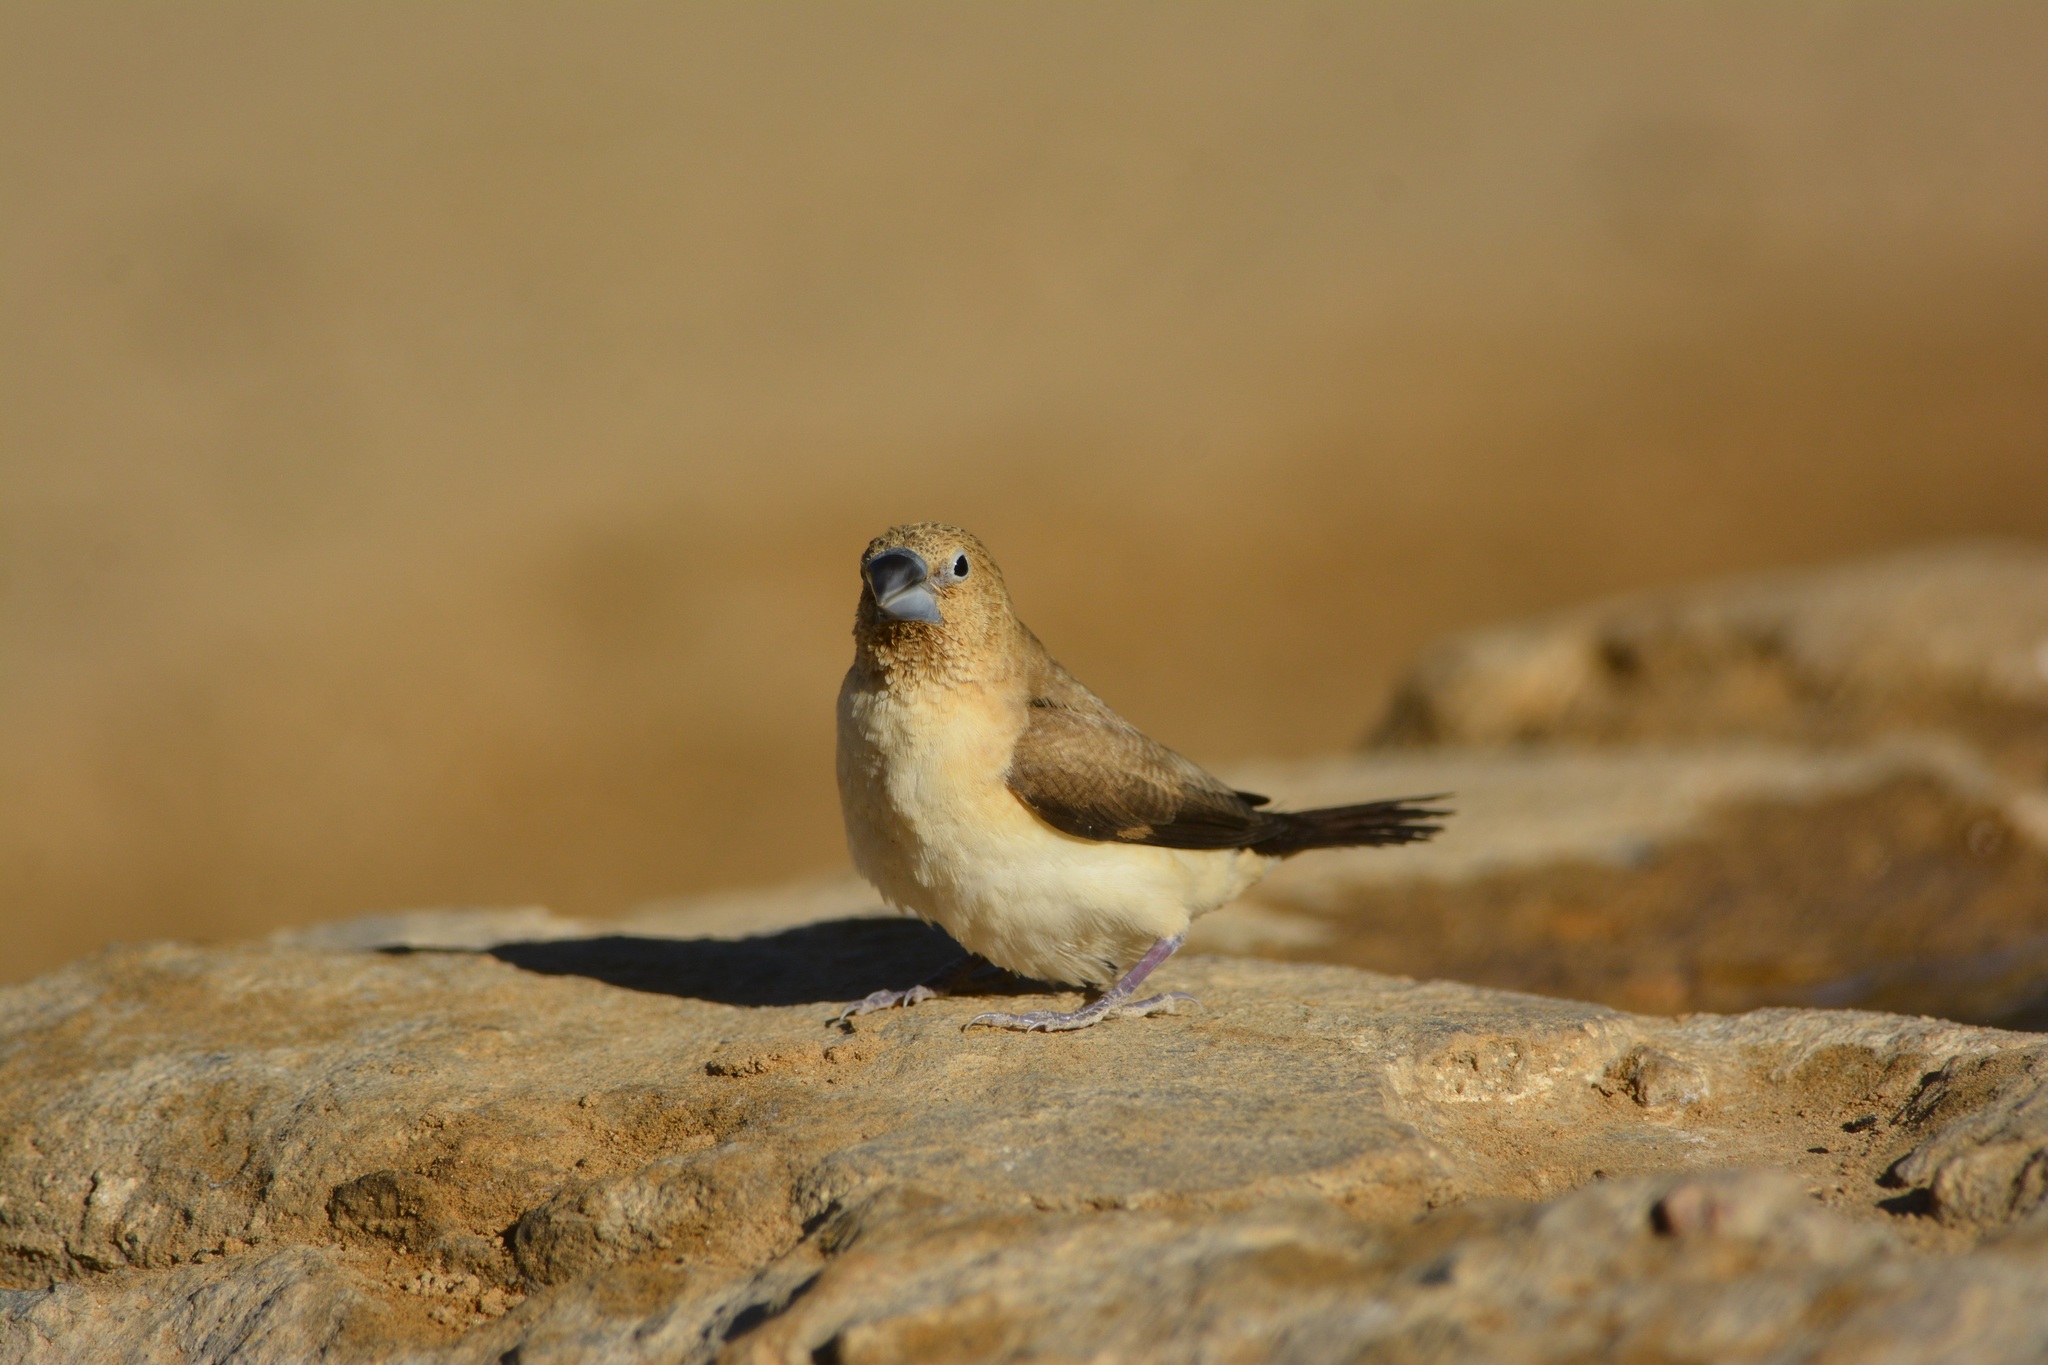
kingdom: Animalia
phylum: Chordata
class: Aves
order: Passeriformes
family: Estrildidae
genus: Euodice
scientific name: Euodice cantans
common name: African silverbill
